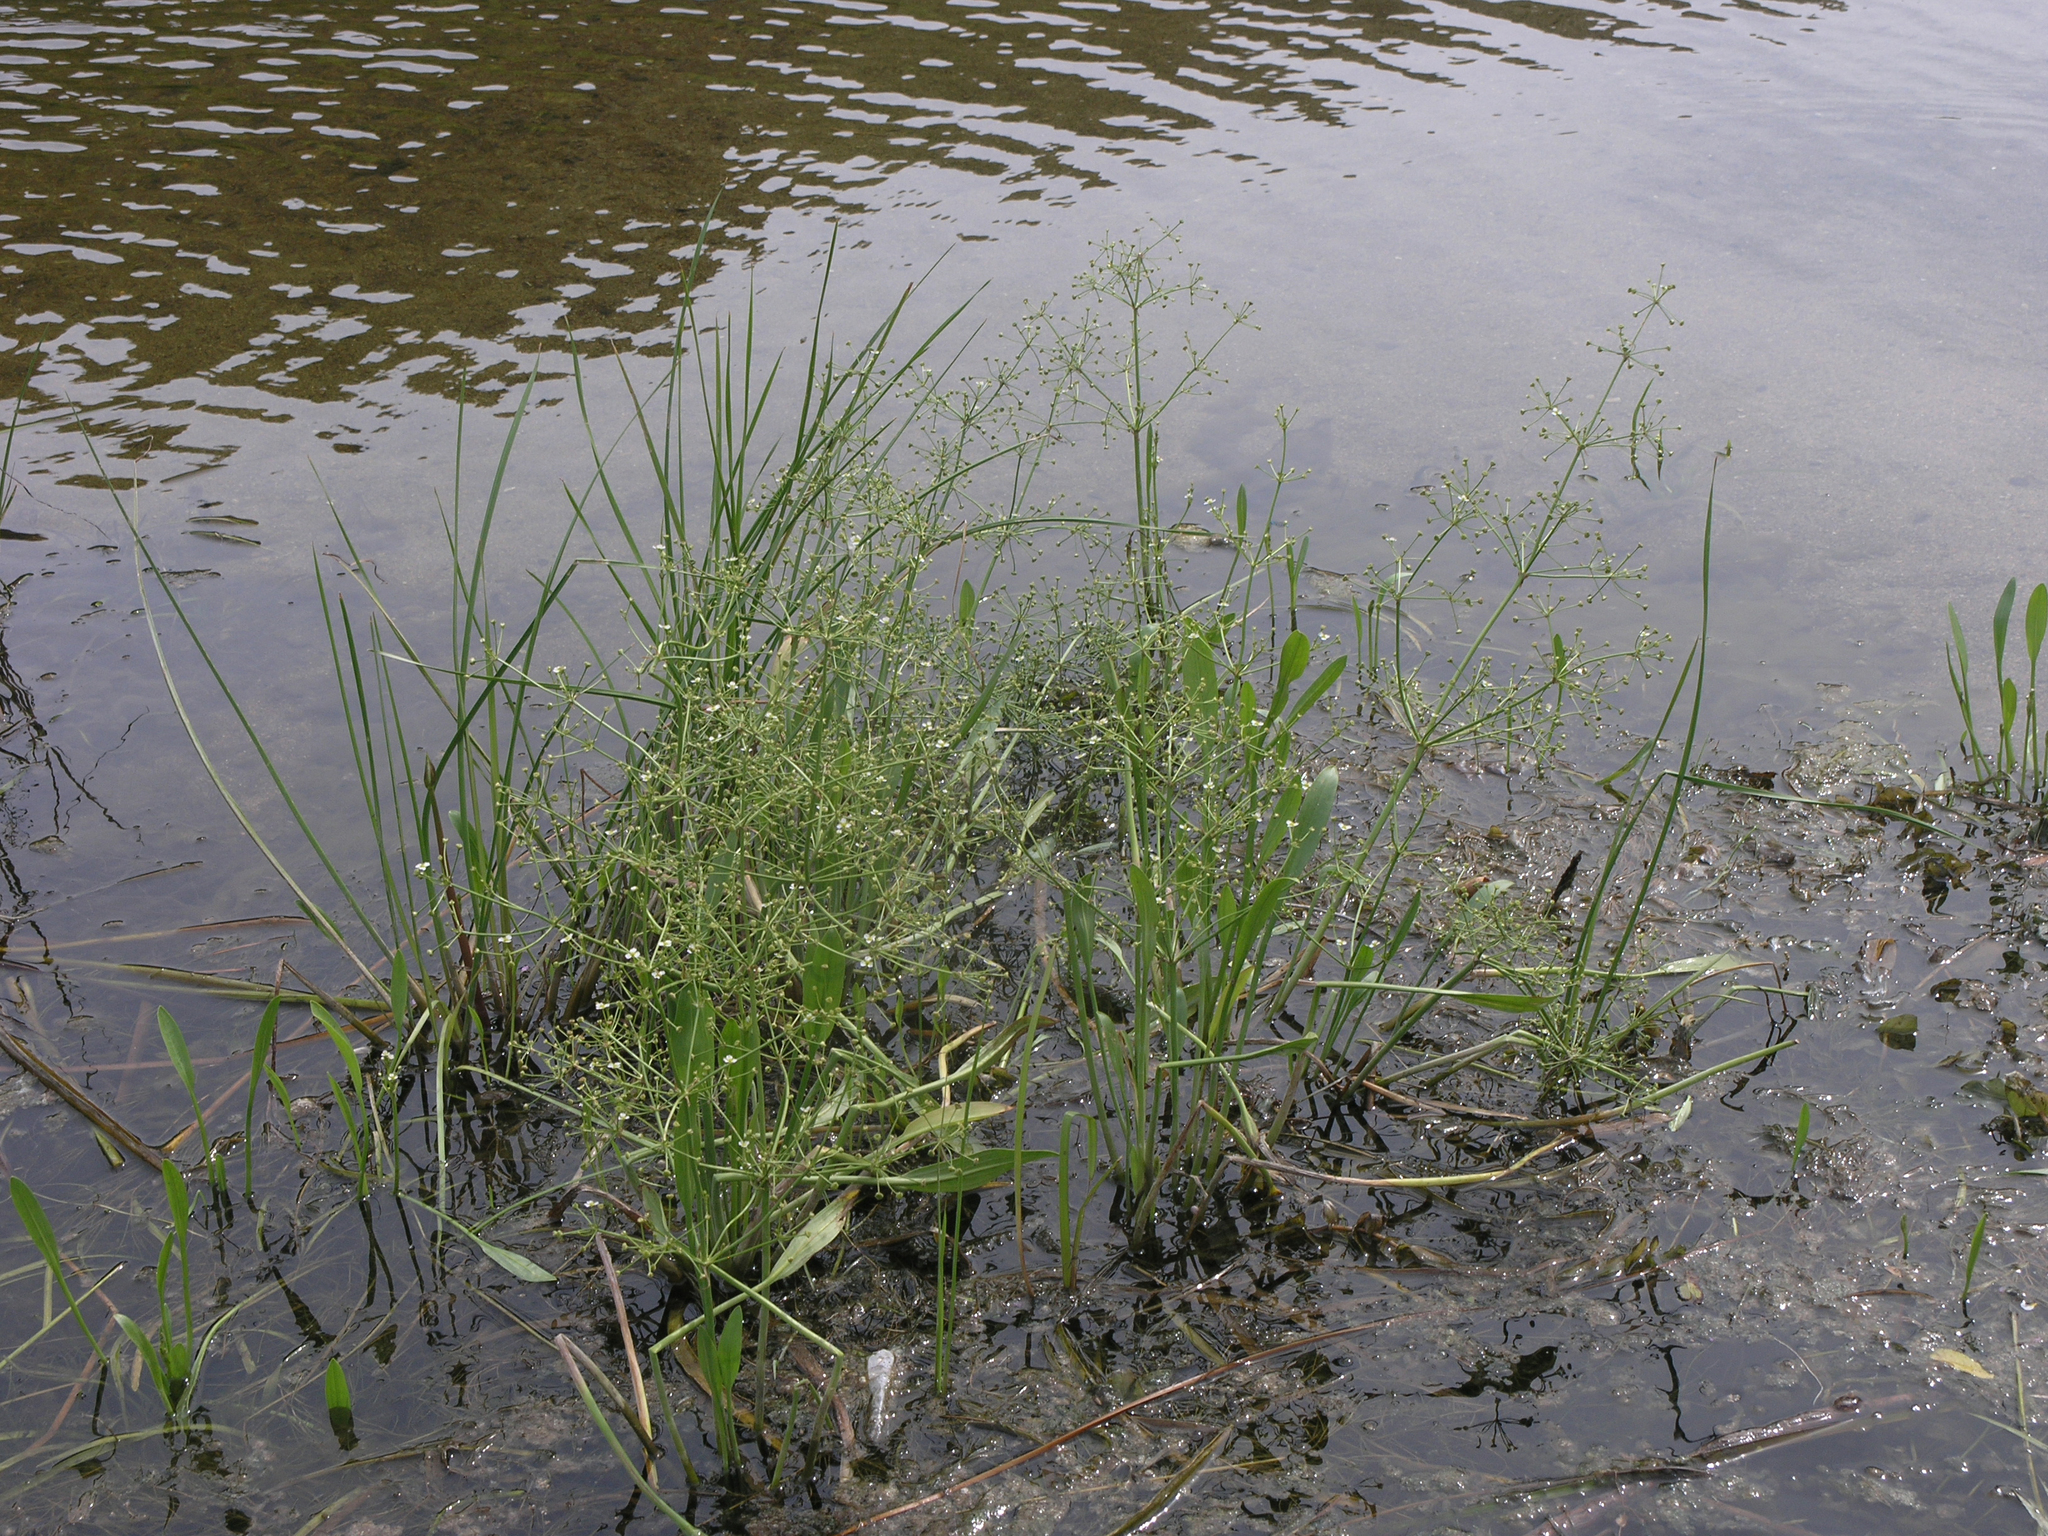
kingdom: Plantae
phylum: Tracheophyta
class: Liliopsida
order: Alismatales
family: Alismataceae
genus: Alisma
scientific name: Alisma gramineum
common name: Ribbon-leaved water-plantain
